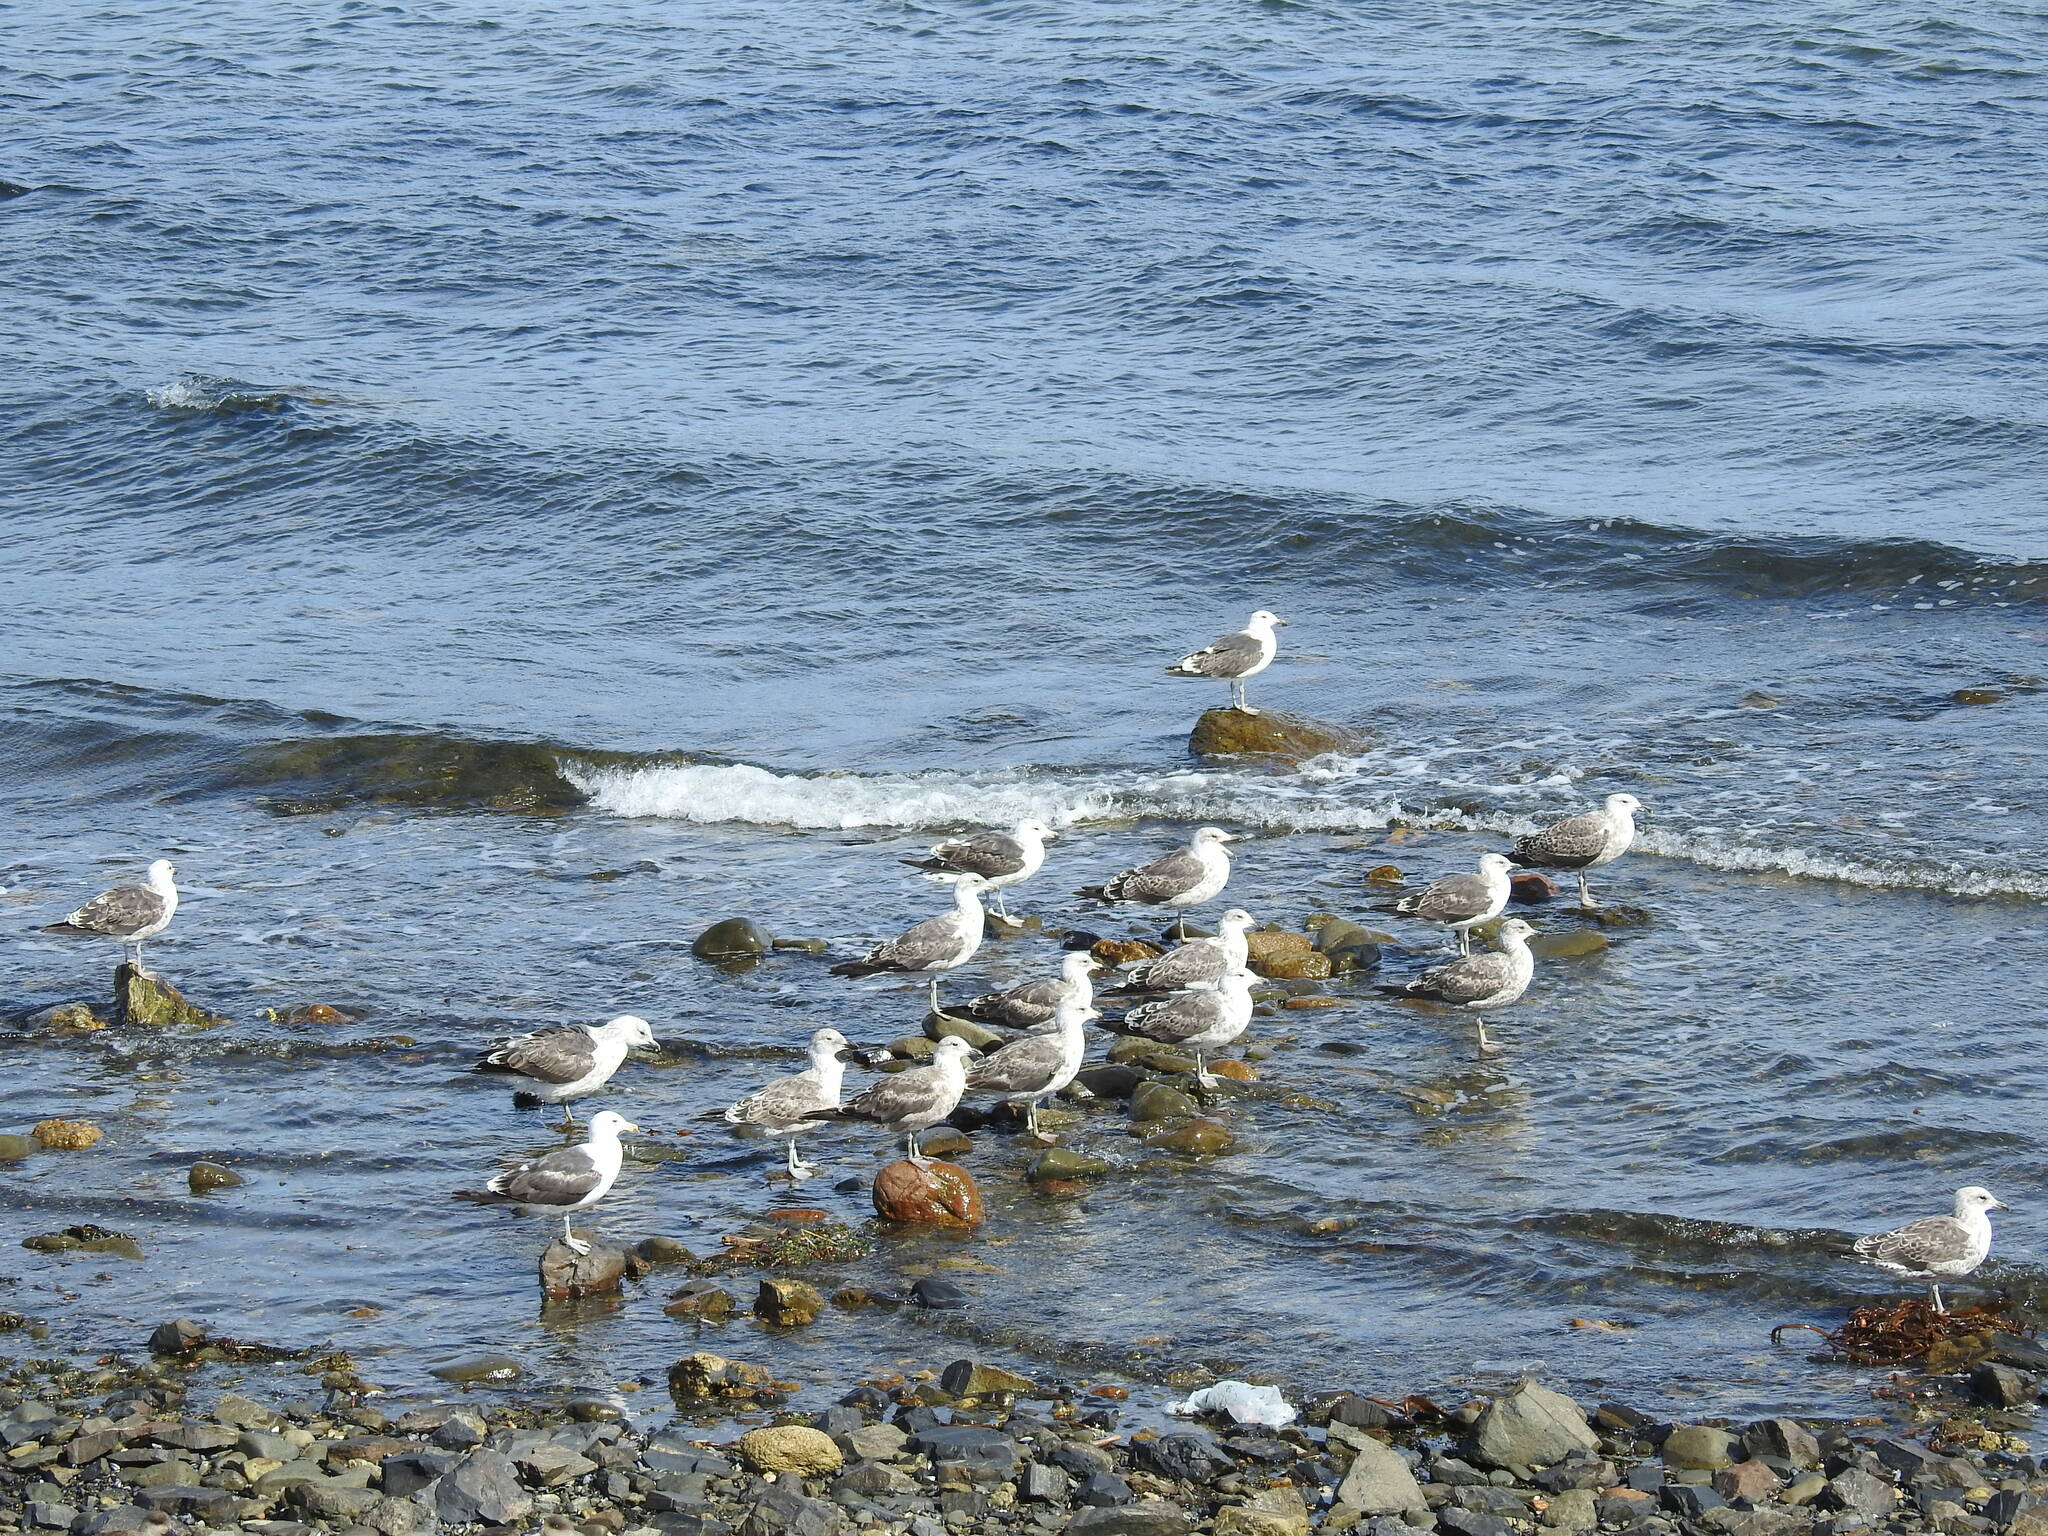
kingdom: Animalia
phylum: Chordata
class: Aves
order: Charadriiformes
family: Laridae
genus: Larus
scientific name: Larus dominicanus
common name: Kelp gull
